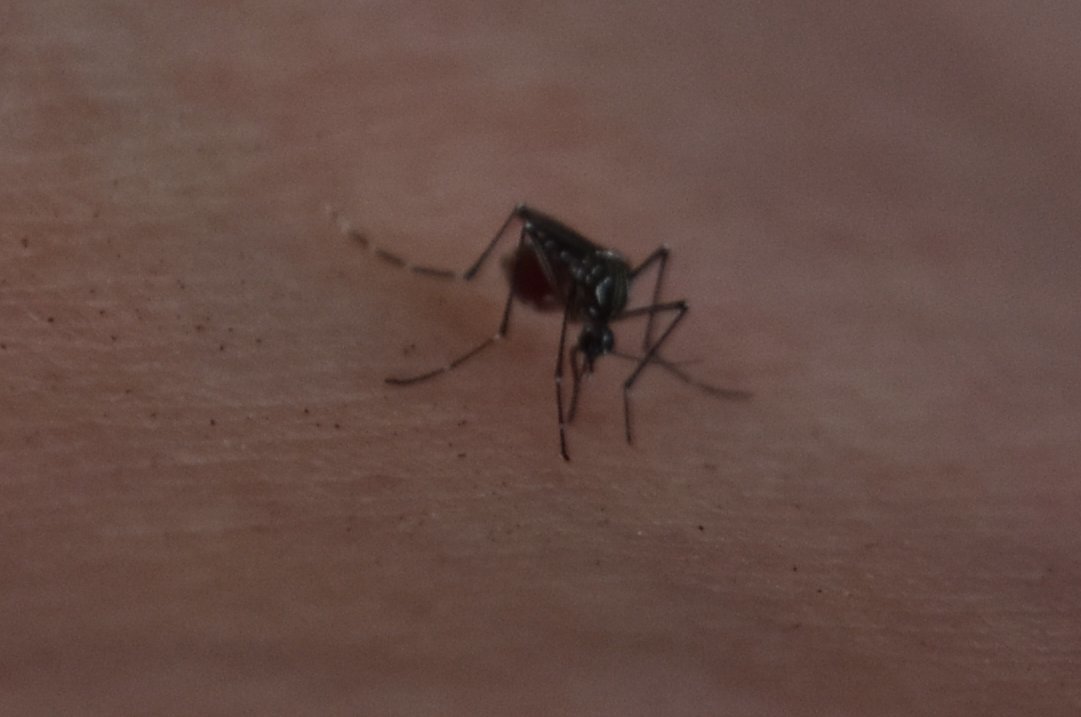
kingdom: Animalia
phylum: Arthropoda
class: Insecta
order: Diptera
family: Culicidae
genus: Aedes
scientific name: Aedes aegypti
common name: Yellow fever mosquito
